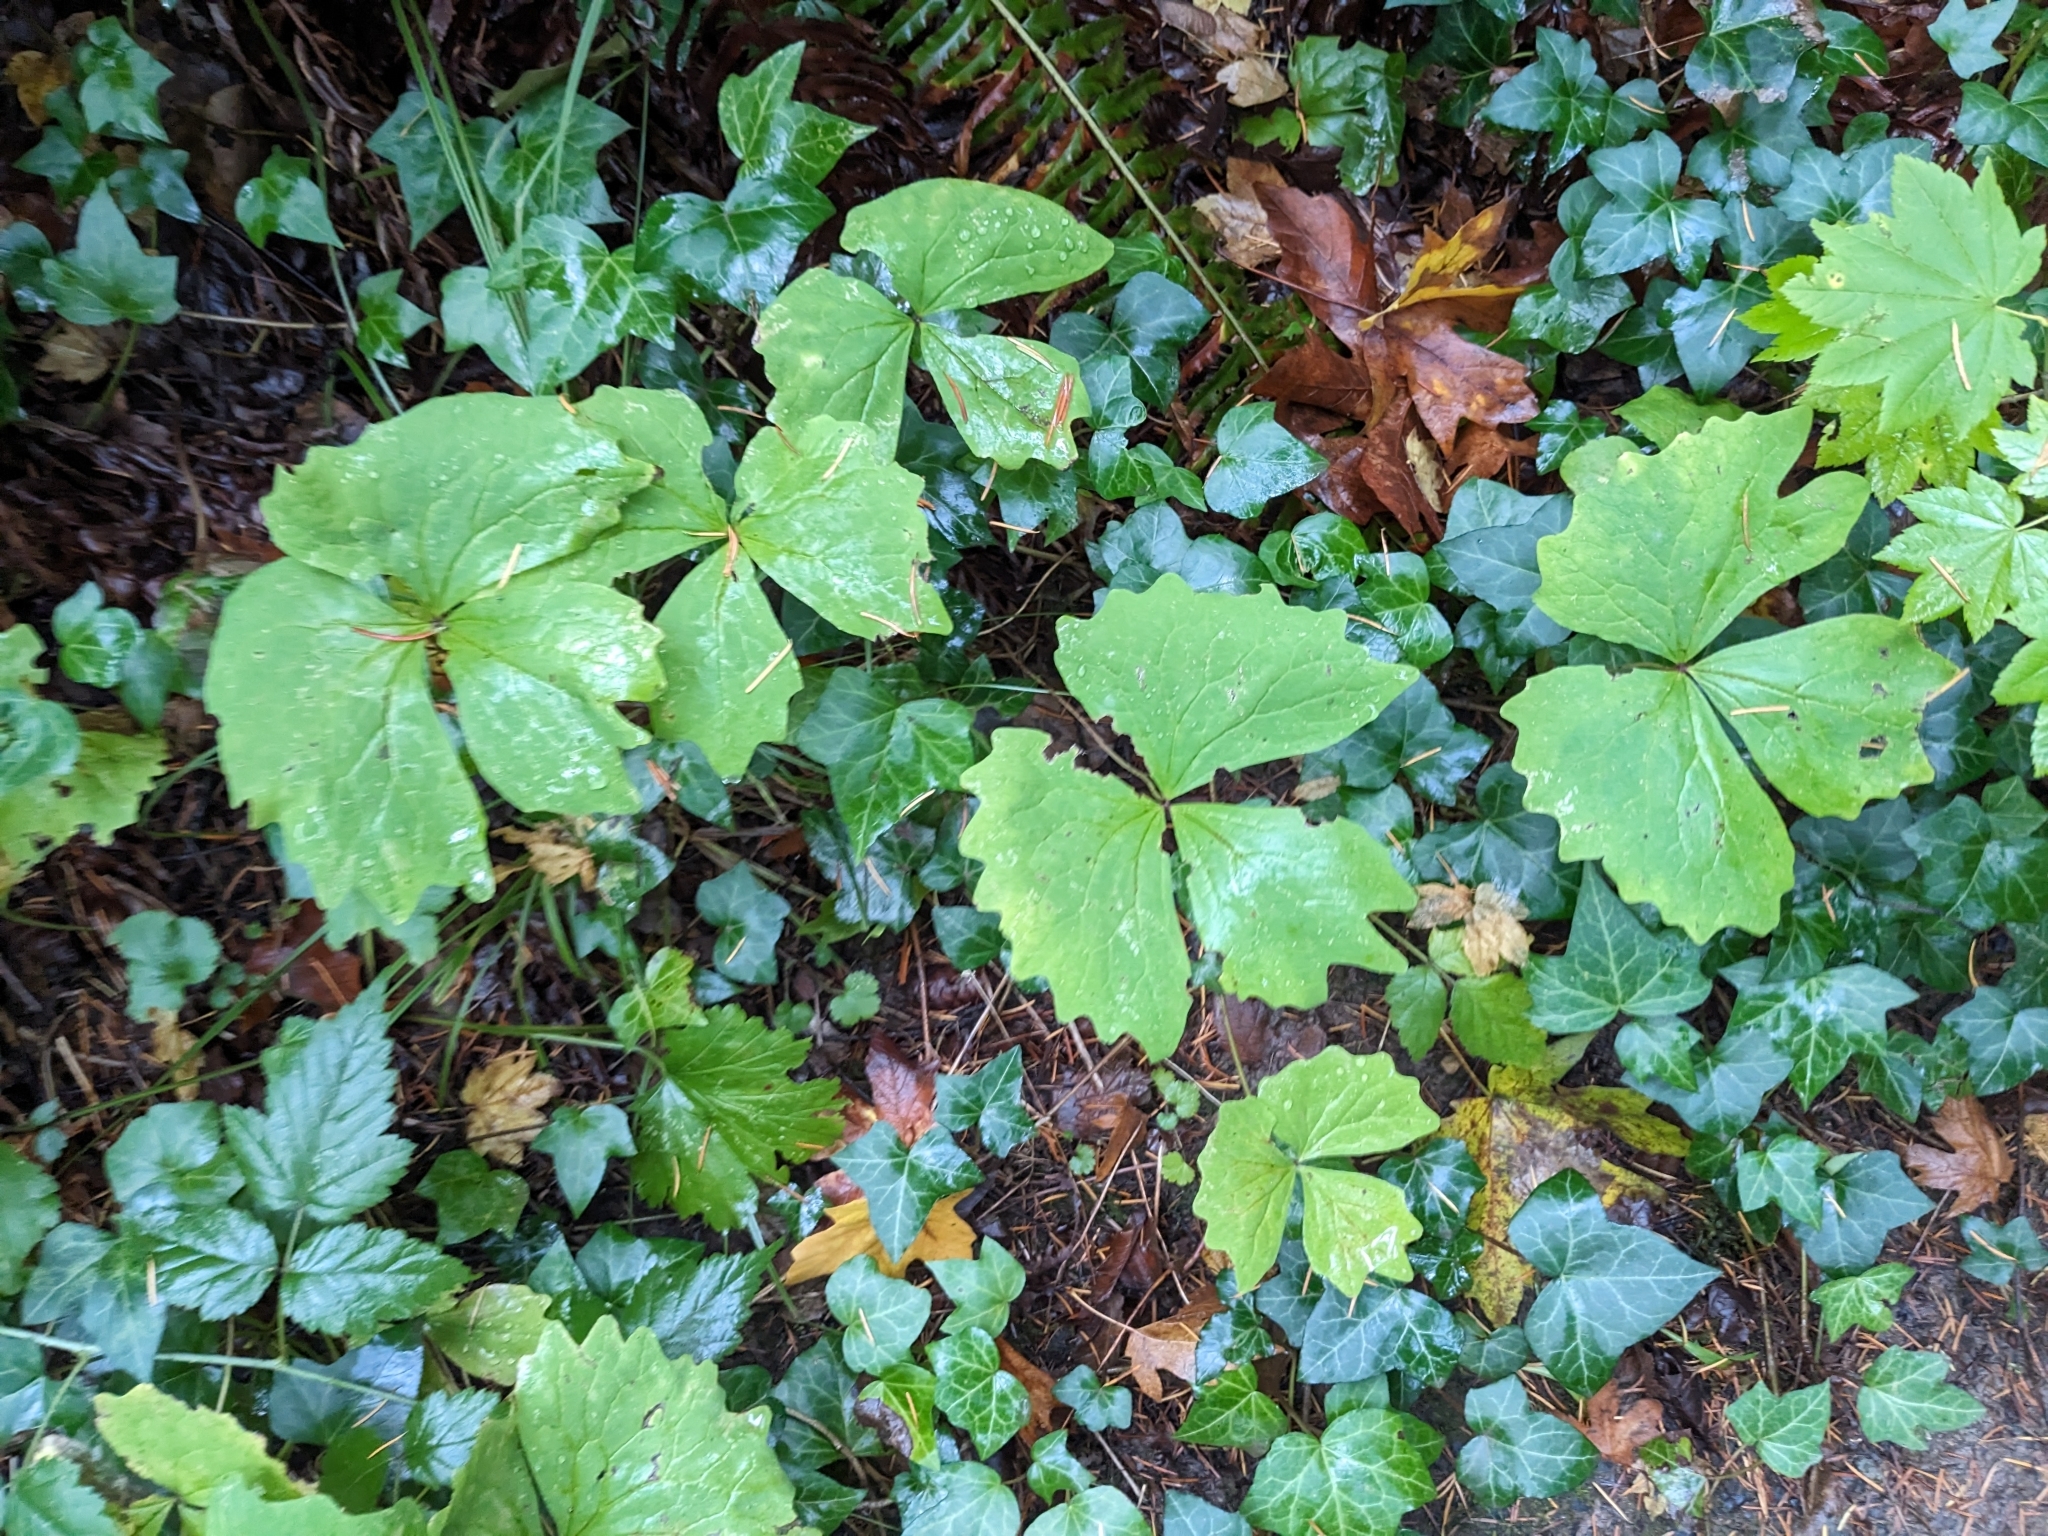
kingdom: Plantae
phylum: Tracheophyta
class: Magnoliopsida
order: Ranunculales
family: Berberidaceae
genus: Achlys
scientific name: Achlys triphylla
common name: Vanilla-leaf
